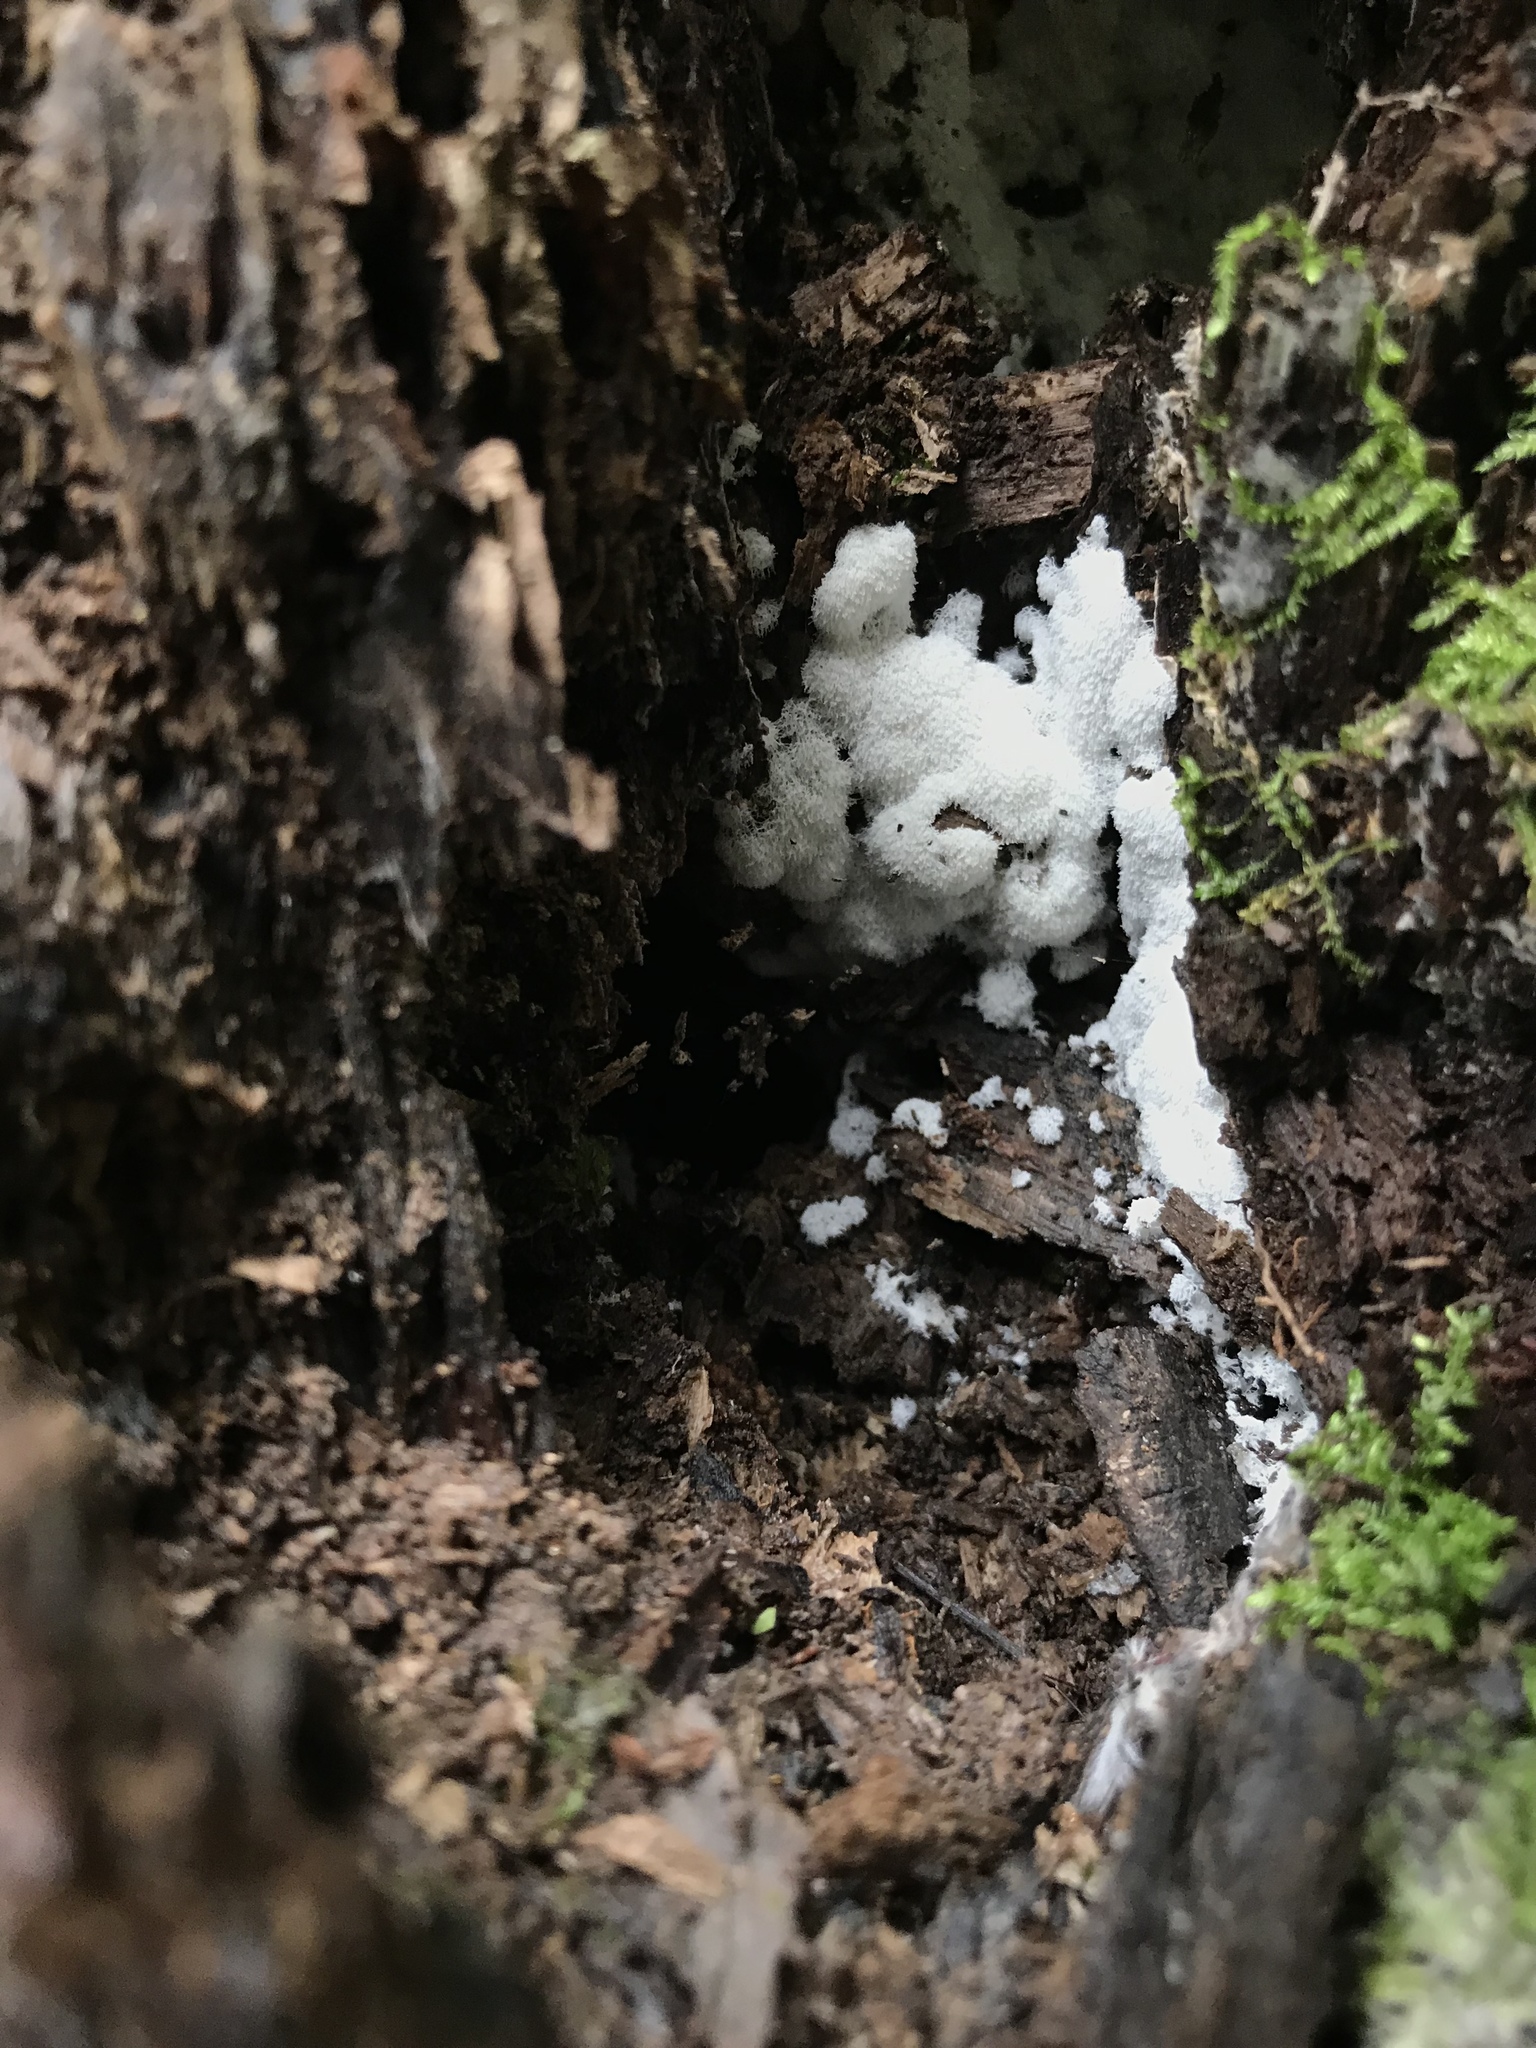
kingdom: Protozoa
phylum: Mycetozoa
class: Protosteliomycetes
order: Ceratiomyxales
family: Ceratiomyxaceae
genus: Ceratiomyxa
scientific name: Ceratiomyxa fruticulosa
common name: Honeycomb coral slime mold
